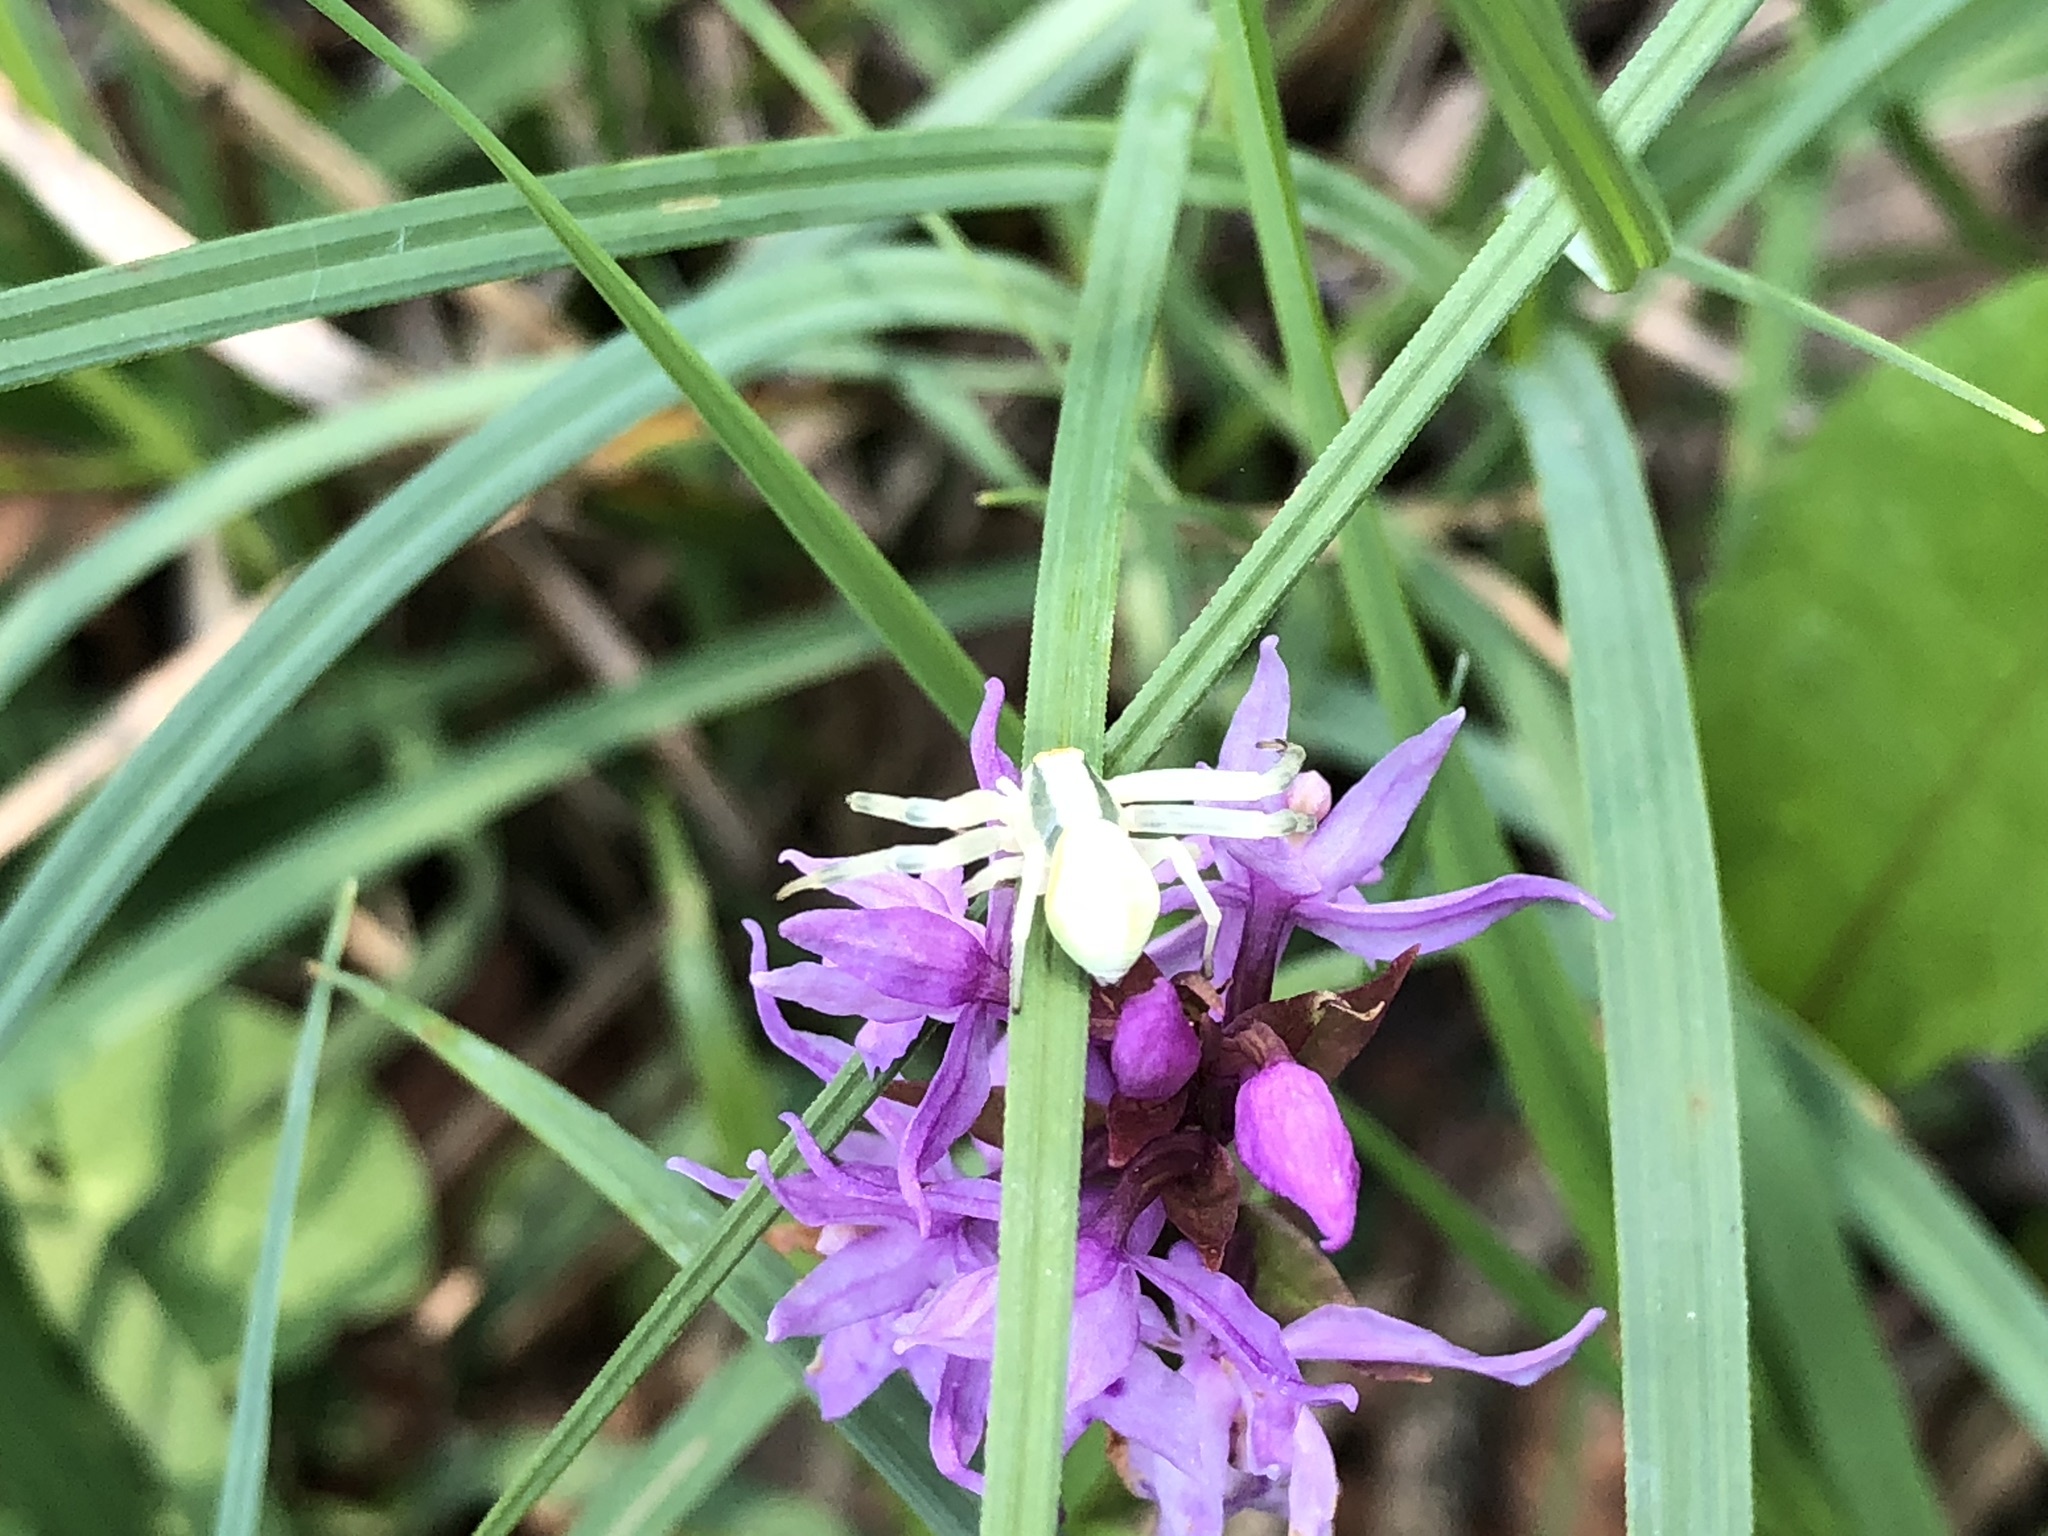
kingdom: Animalia
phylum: Arthropoda
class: Arachnida
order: Araneae
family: Thomisidae
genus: Misumena
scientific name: Misumena vatia
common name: Goldenrod crab spider
